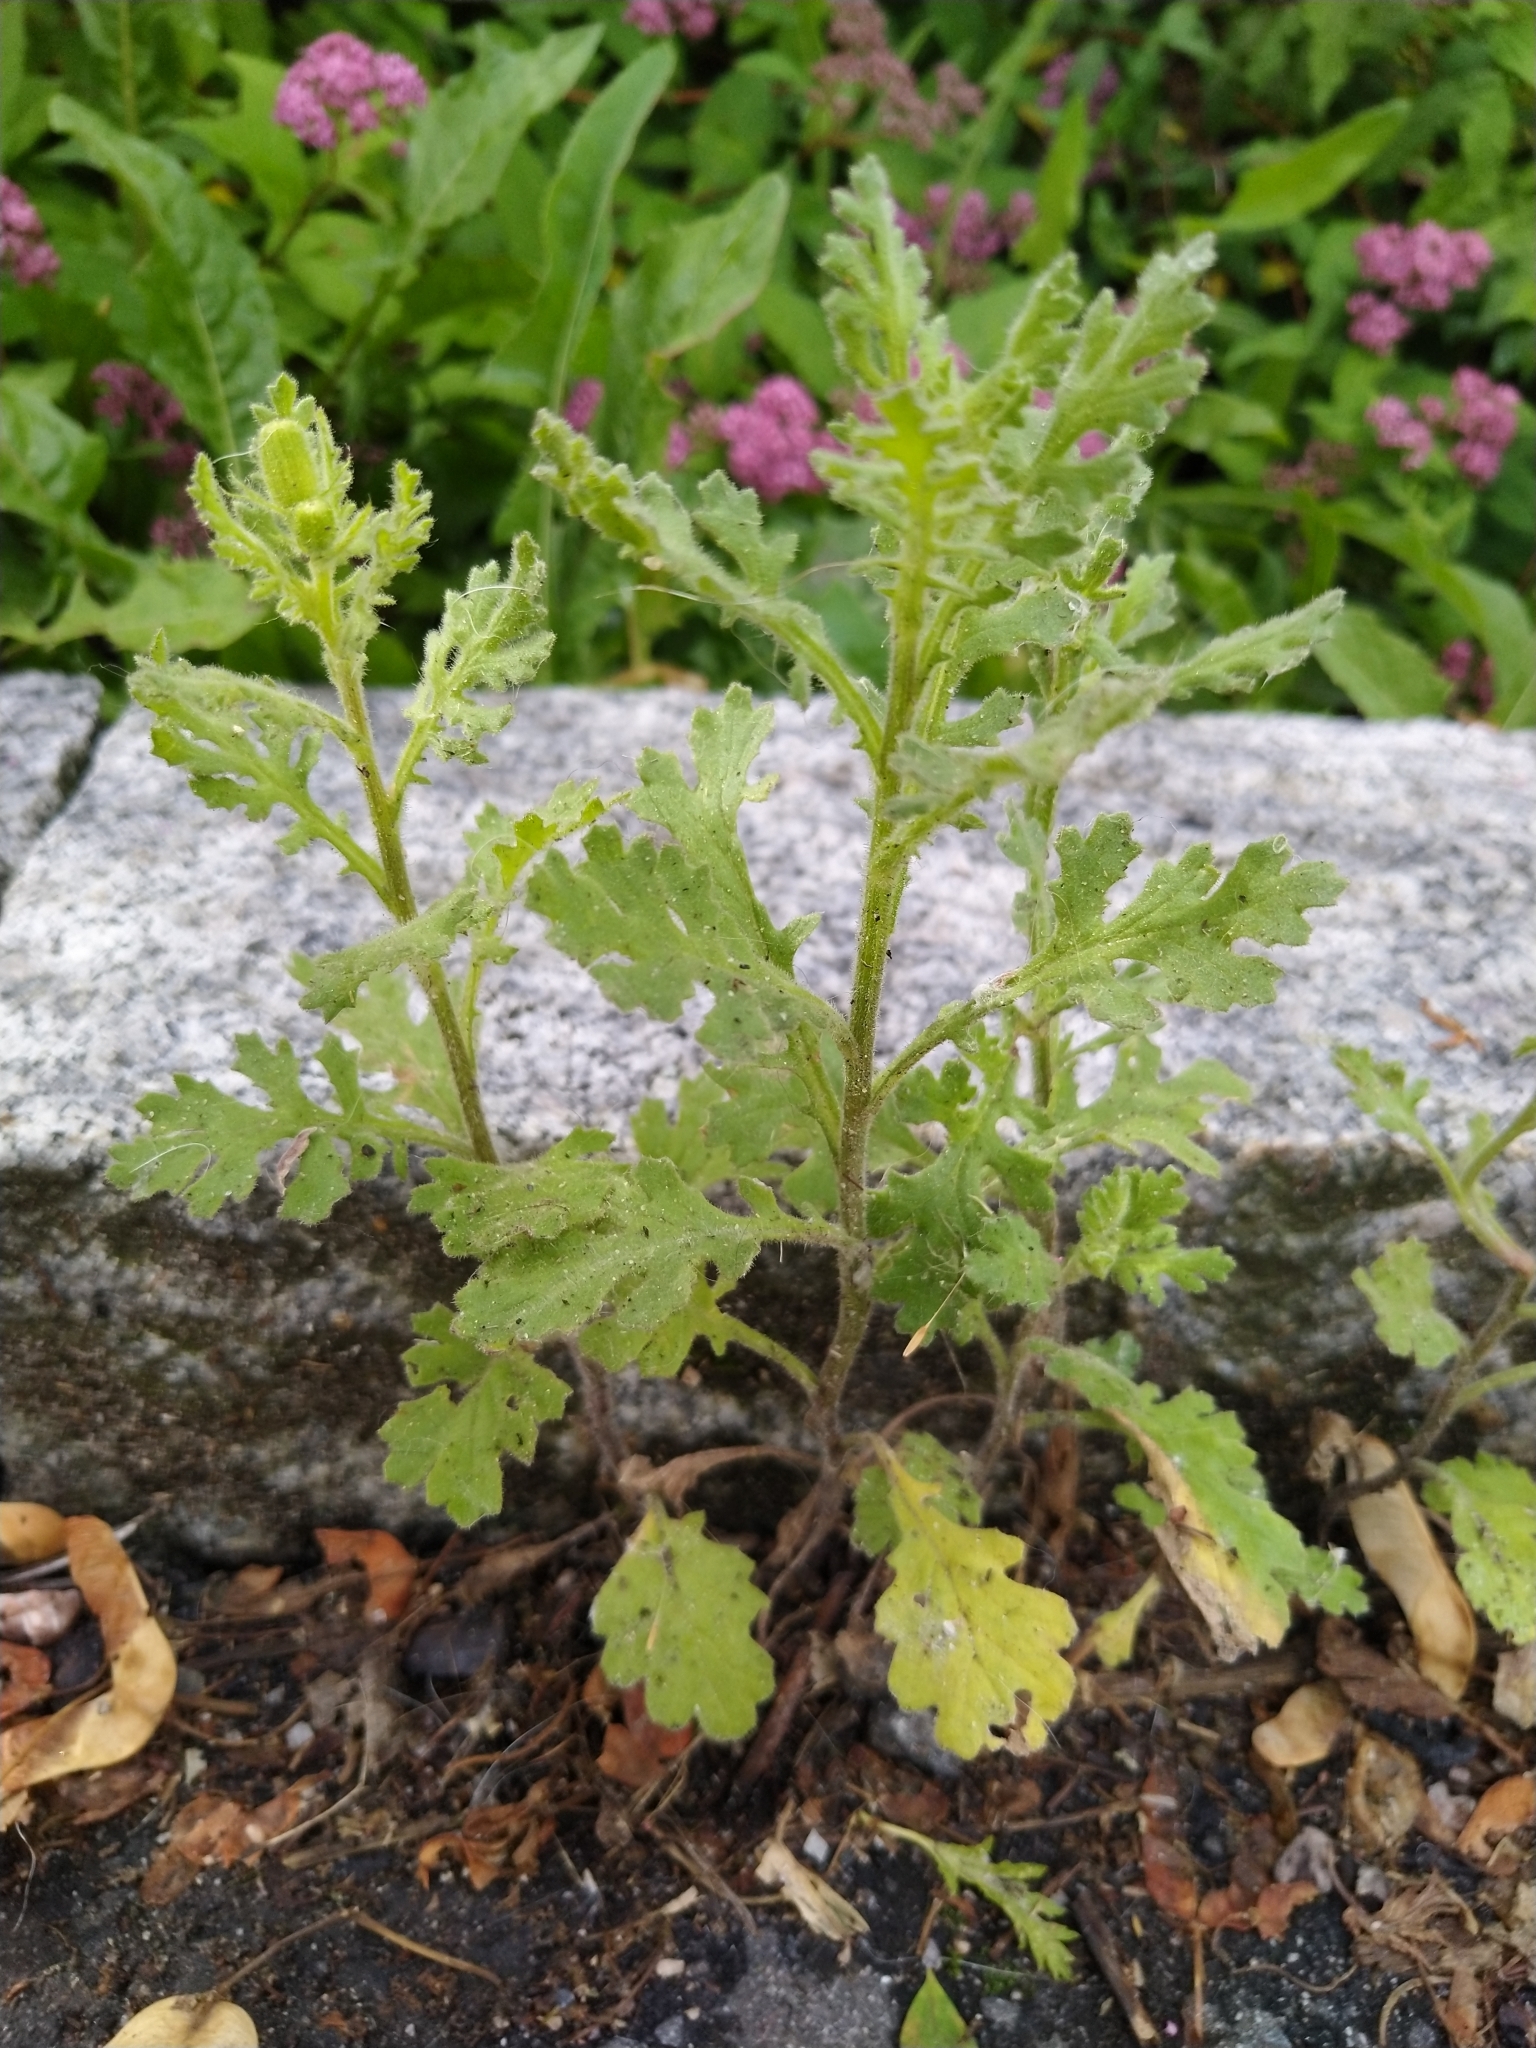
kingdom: Plantae
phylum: Tracheophyta
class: Magnoliopsida
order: Asterales
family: Asteraceae
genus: Senecio
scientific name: Senecio viscosus
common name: Sticky groundsel
